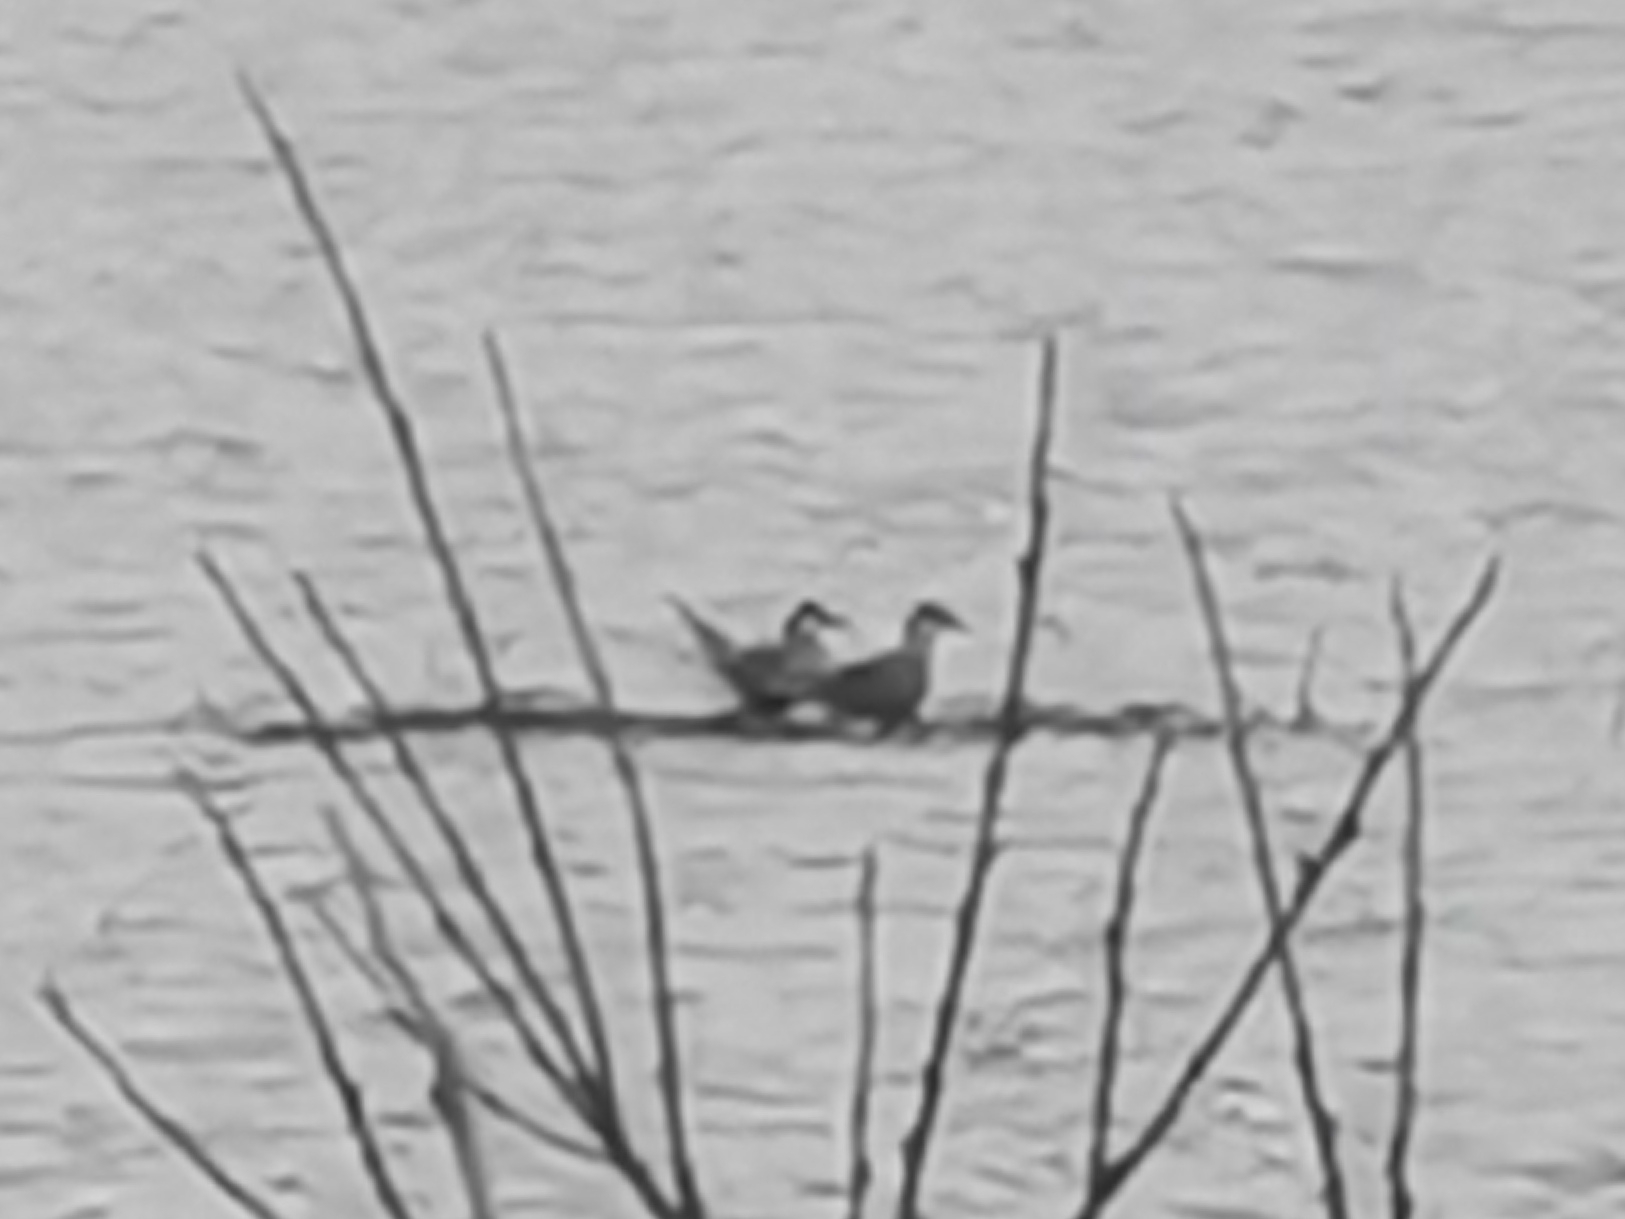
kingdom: Animalia
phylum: Chordata
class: Aves
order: Charadriiformes
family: Laridae
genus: Sterna
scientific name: Sterna hirundo
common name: Common tern
